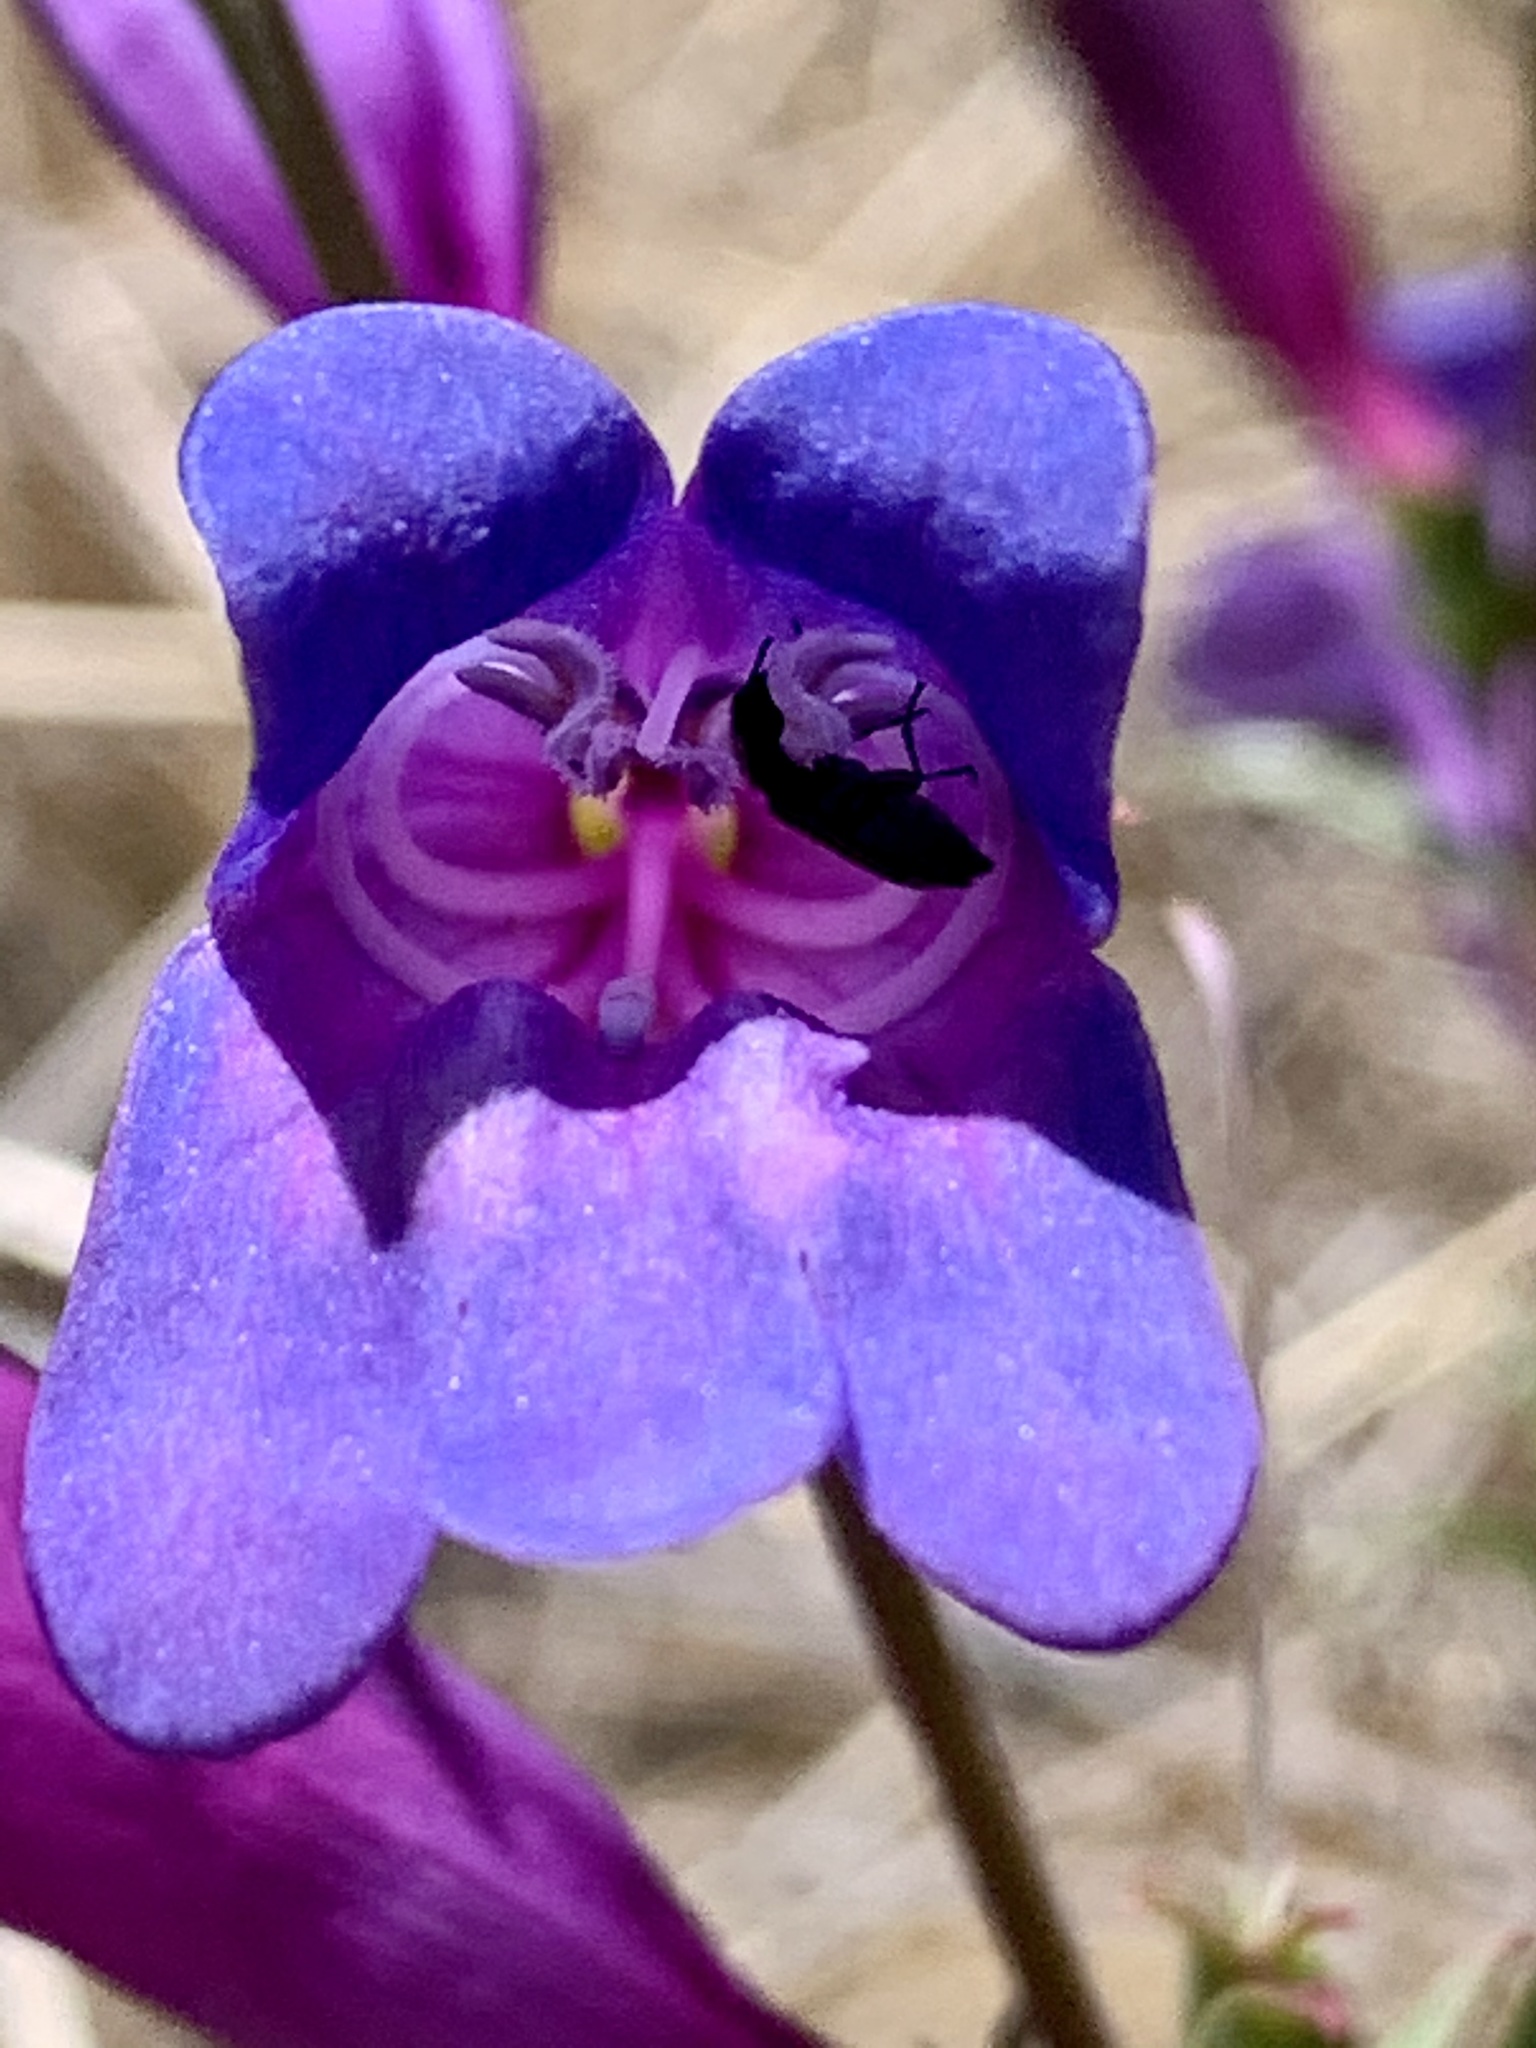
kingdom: Plantae
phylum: Tracheophyta
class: Magnoliopsida
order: Lamiales
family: Plantaginaceae
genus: Penstemon
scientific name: Penstemon heterophyllus
